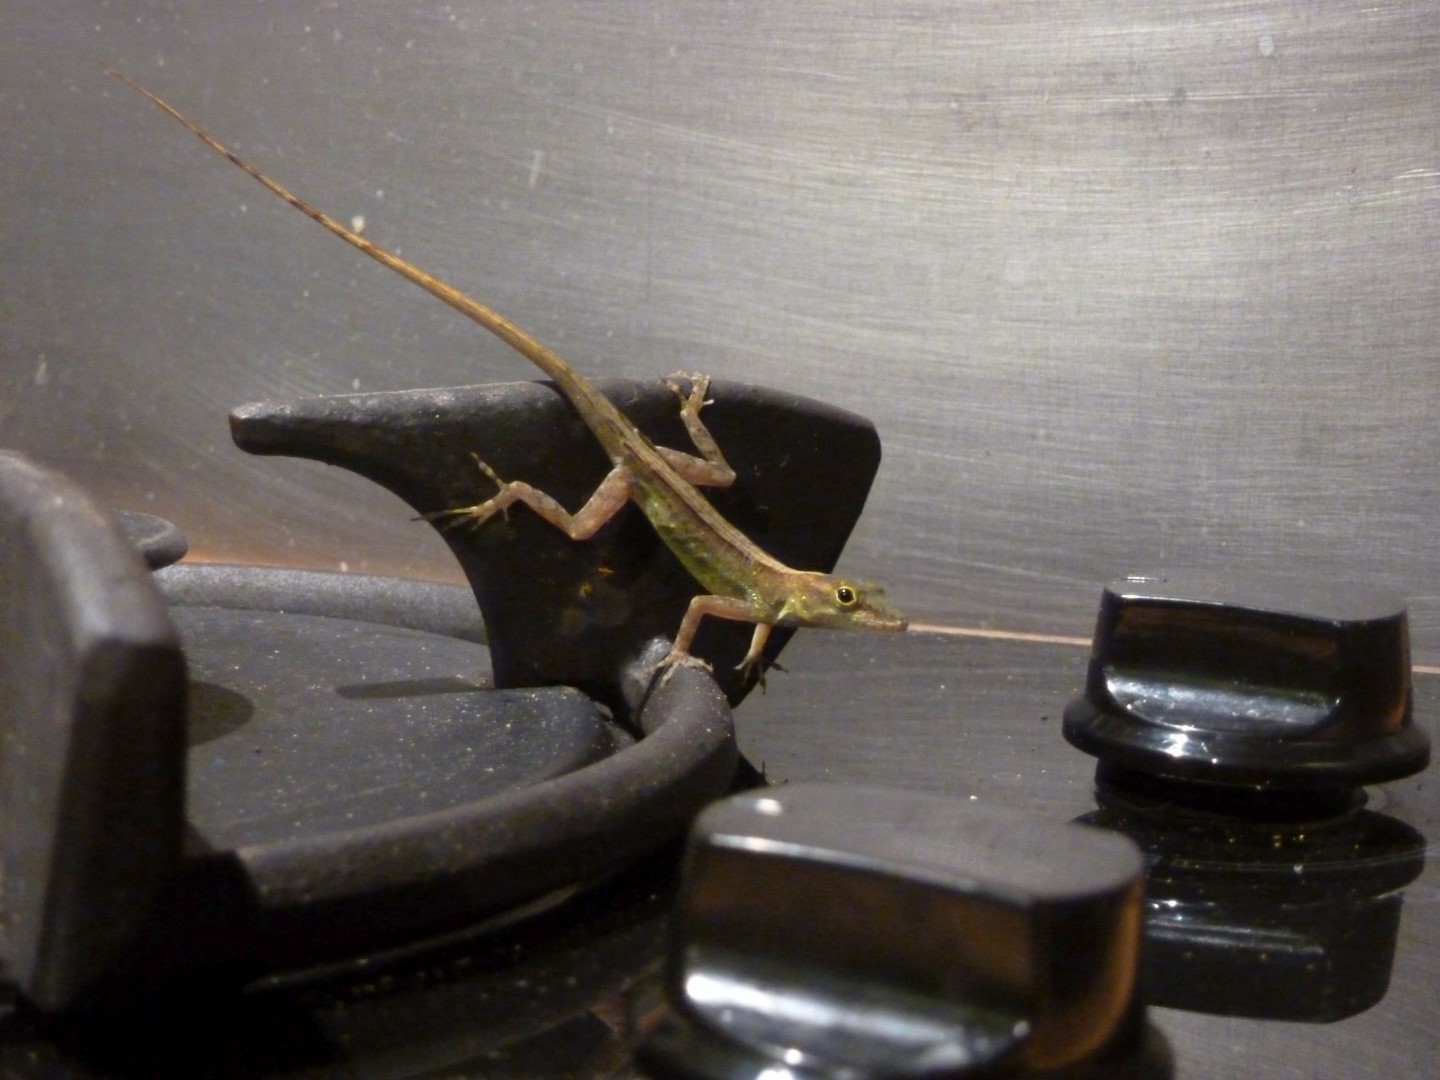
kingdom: Animalia
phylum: Chordata
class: Squamata
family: Dactyloidae
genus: Anolis
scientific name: Anolis marmoratus
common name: Guadeloupe anole
